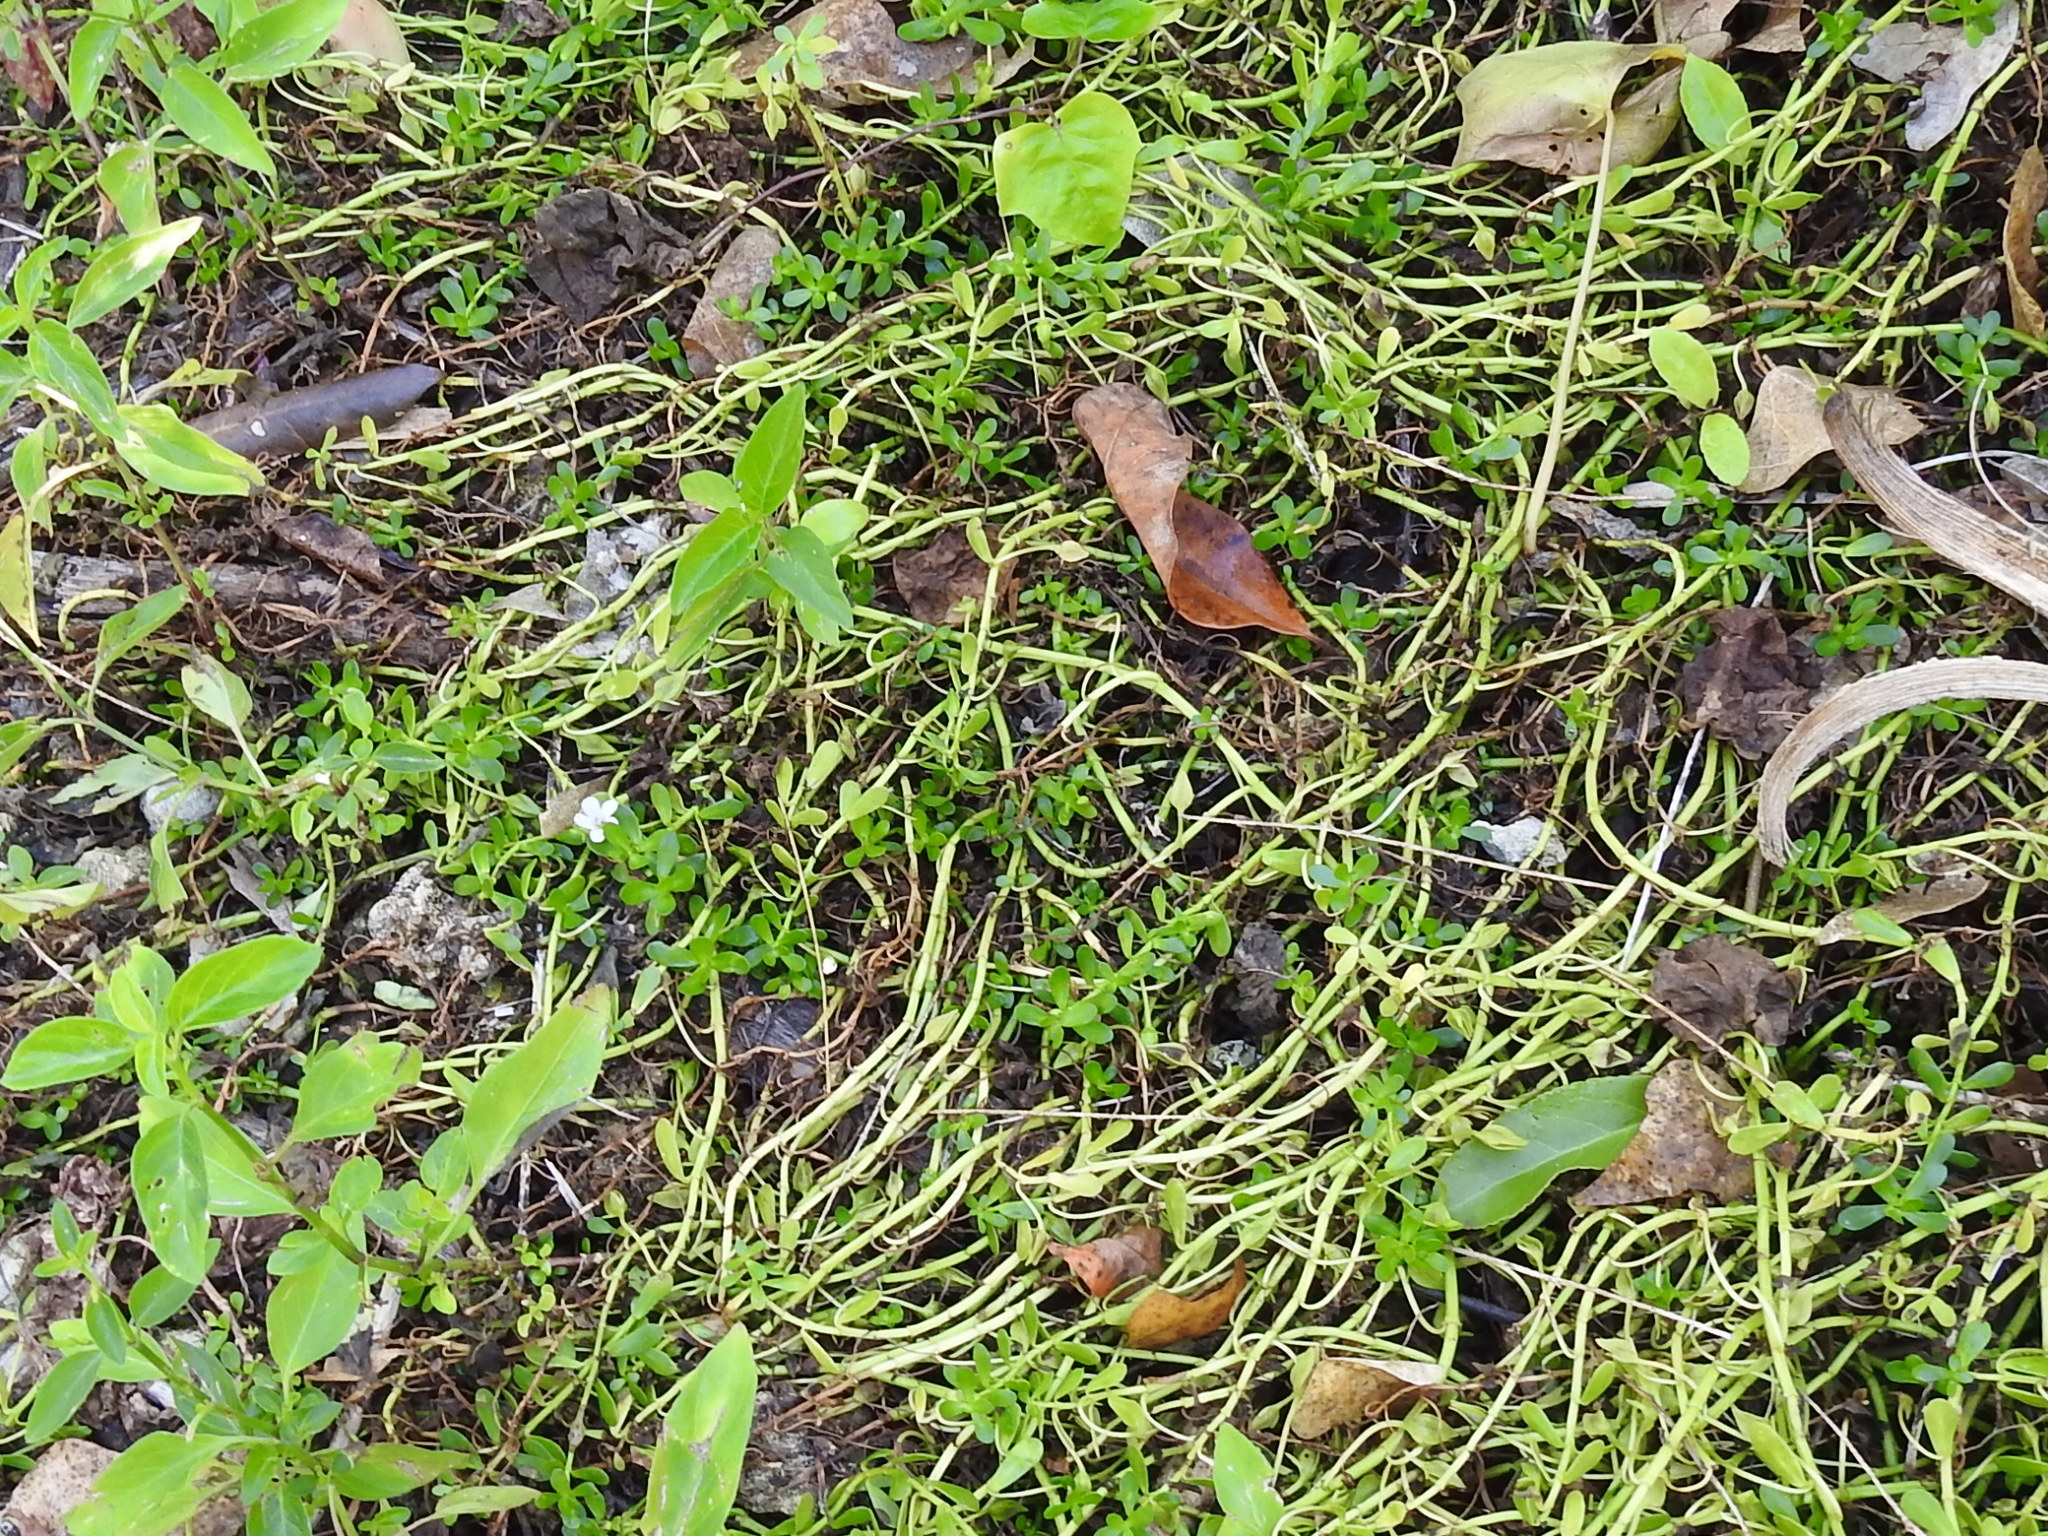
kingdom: Plantae
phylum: Tracheophyta
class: Magnoliopsida
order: Lamiales
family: Plantaginaceae
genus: Bacopa
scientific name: Bacopa monnieri
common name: Indian-pennywort
